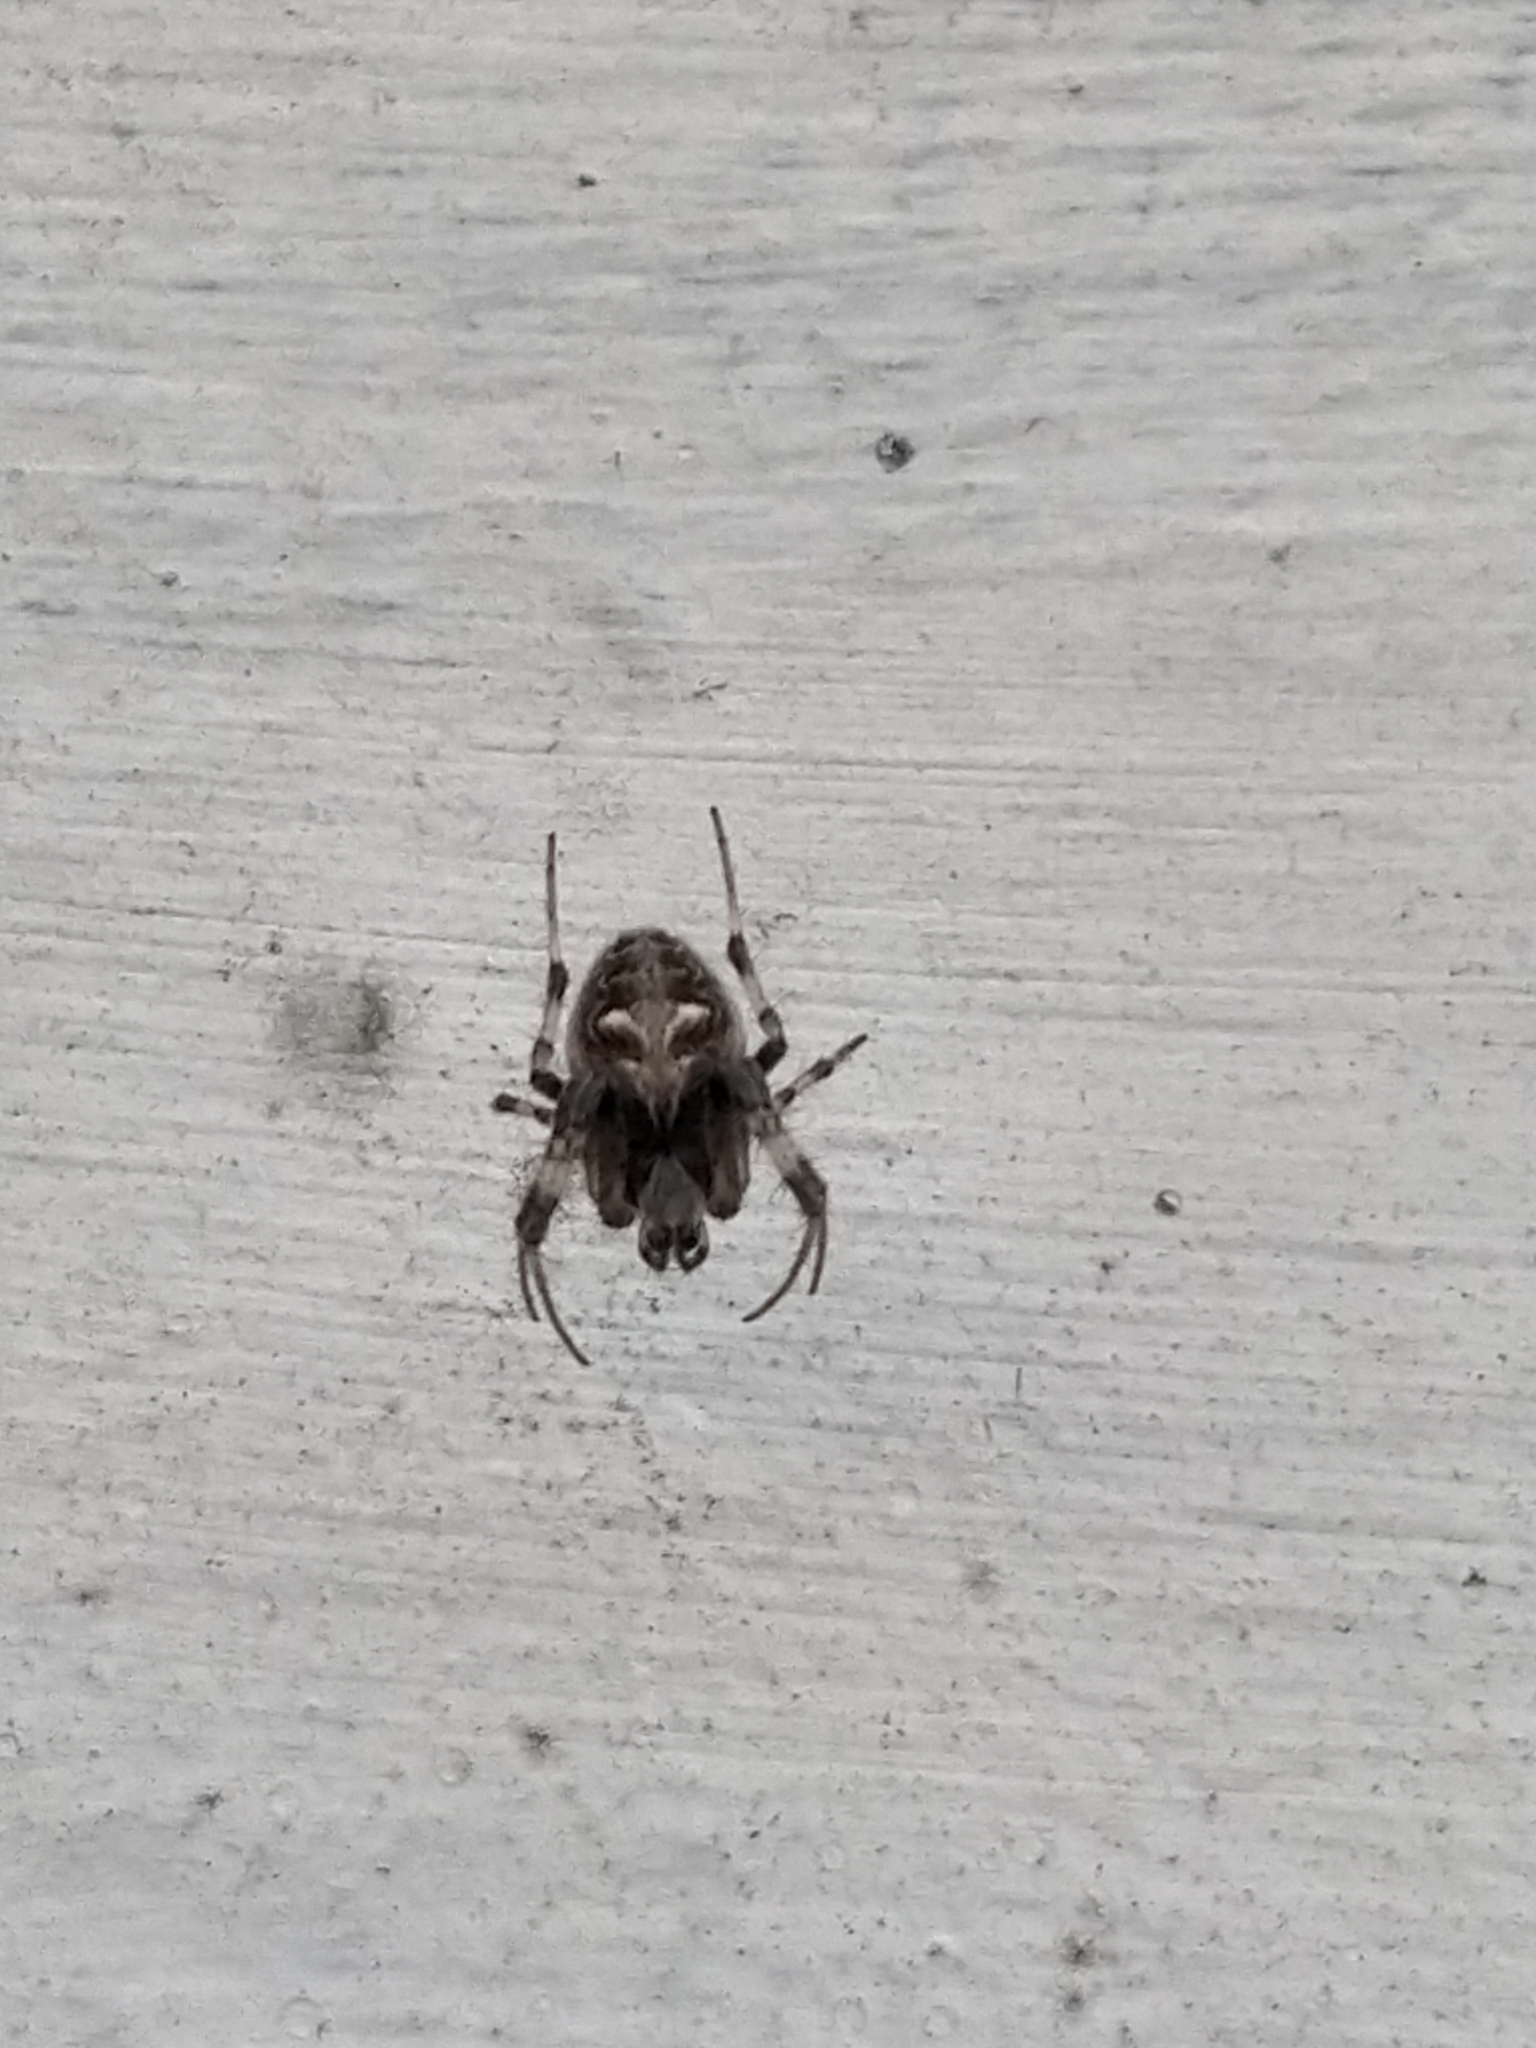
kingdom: Animalia
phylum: Arthropoda
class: Arachnida
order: Araneae
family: Araneidae
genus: Metepeira
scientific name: Metepeira
